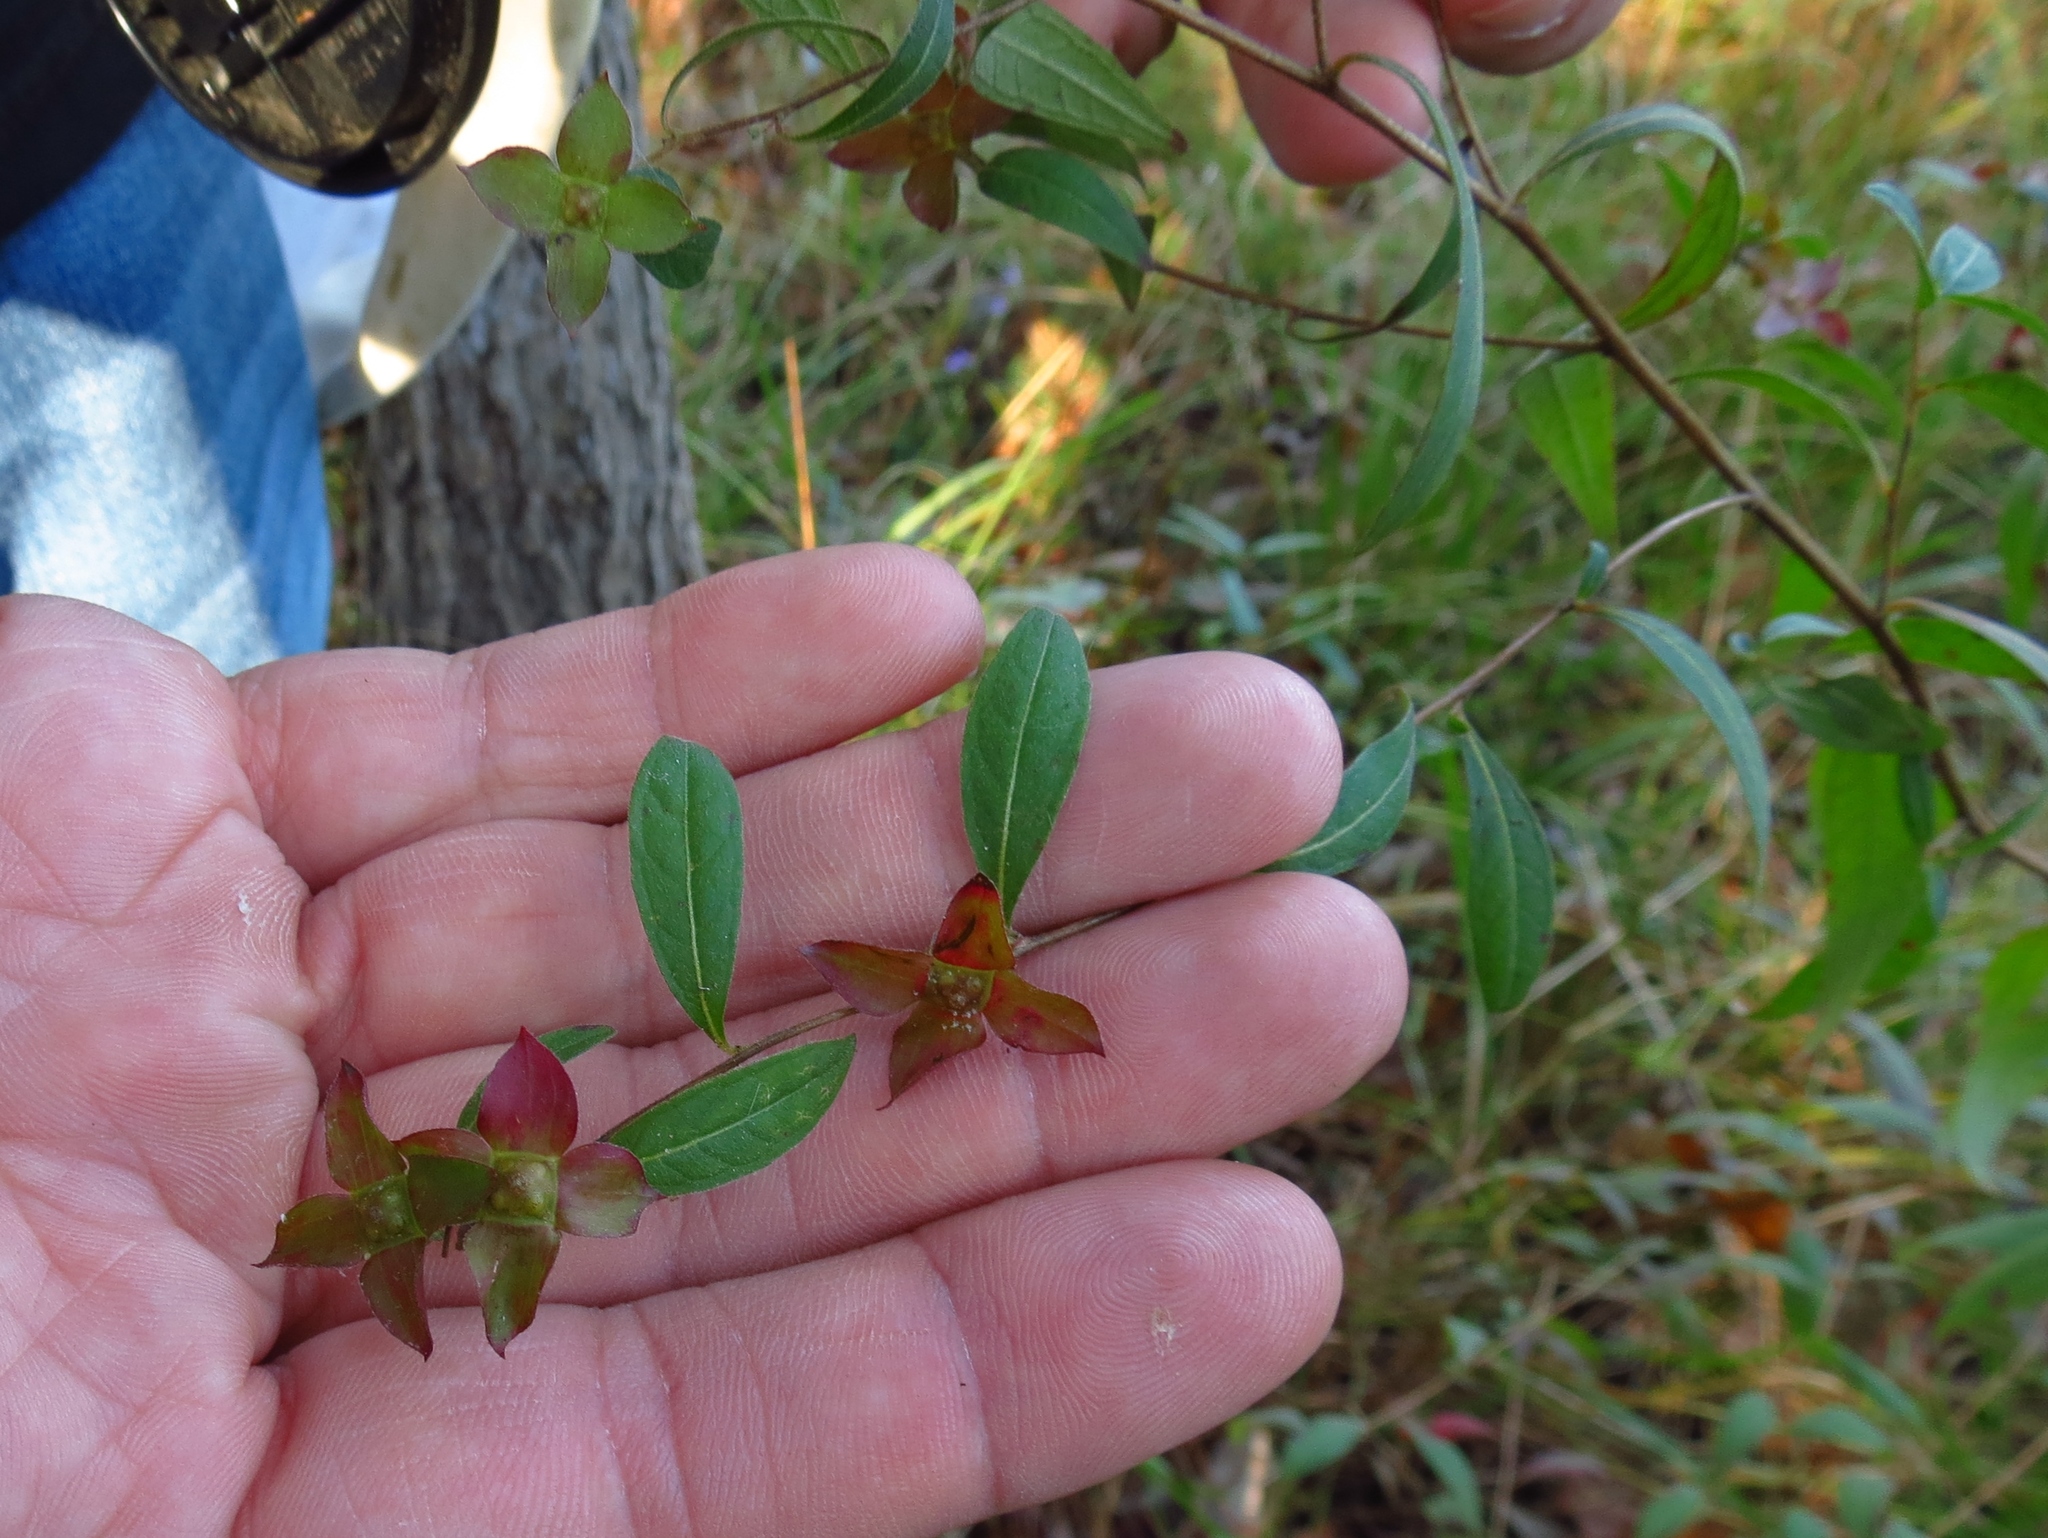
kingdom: Plantae
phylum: Tracheophyta
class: Magnoliopsida
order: Myrtales
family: Onagraceae
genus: Ludwigia
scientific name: Ludwigia alternifolia
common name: Rattlebox
